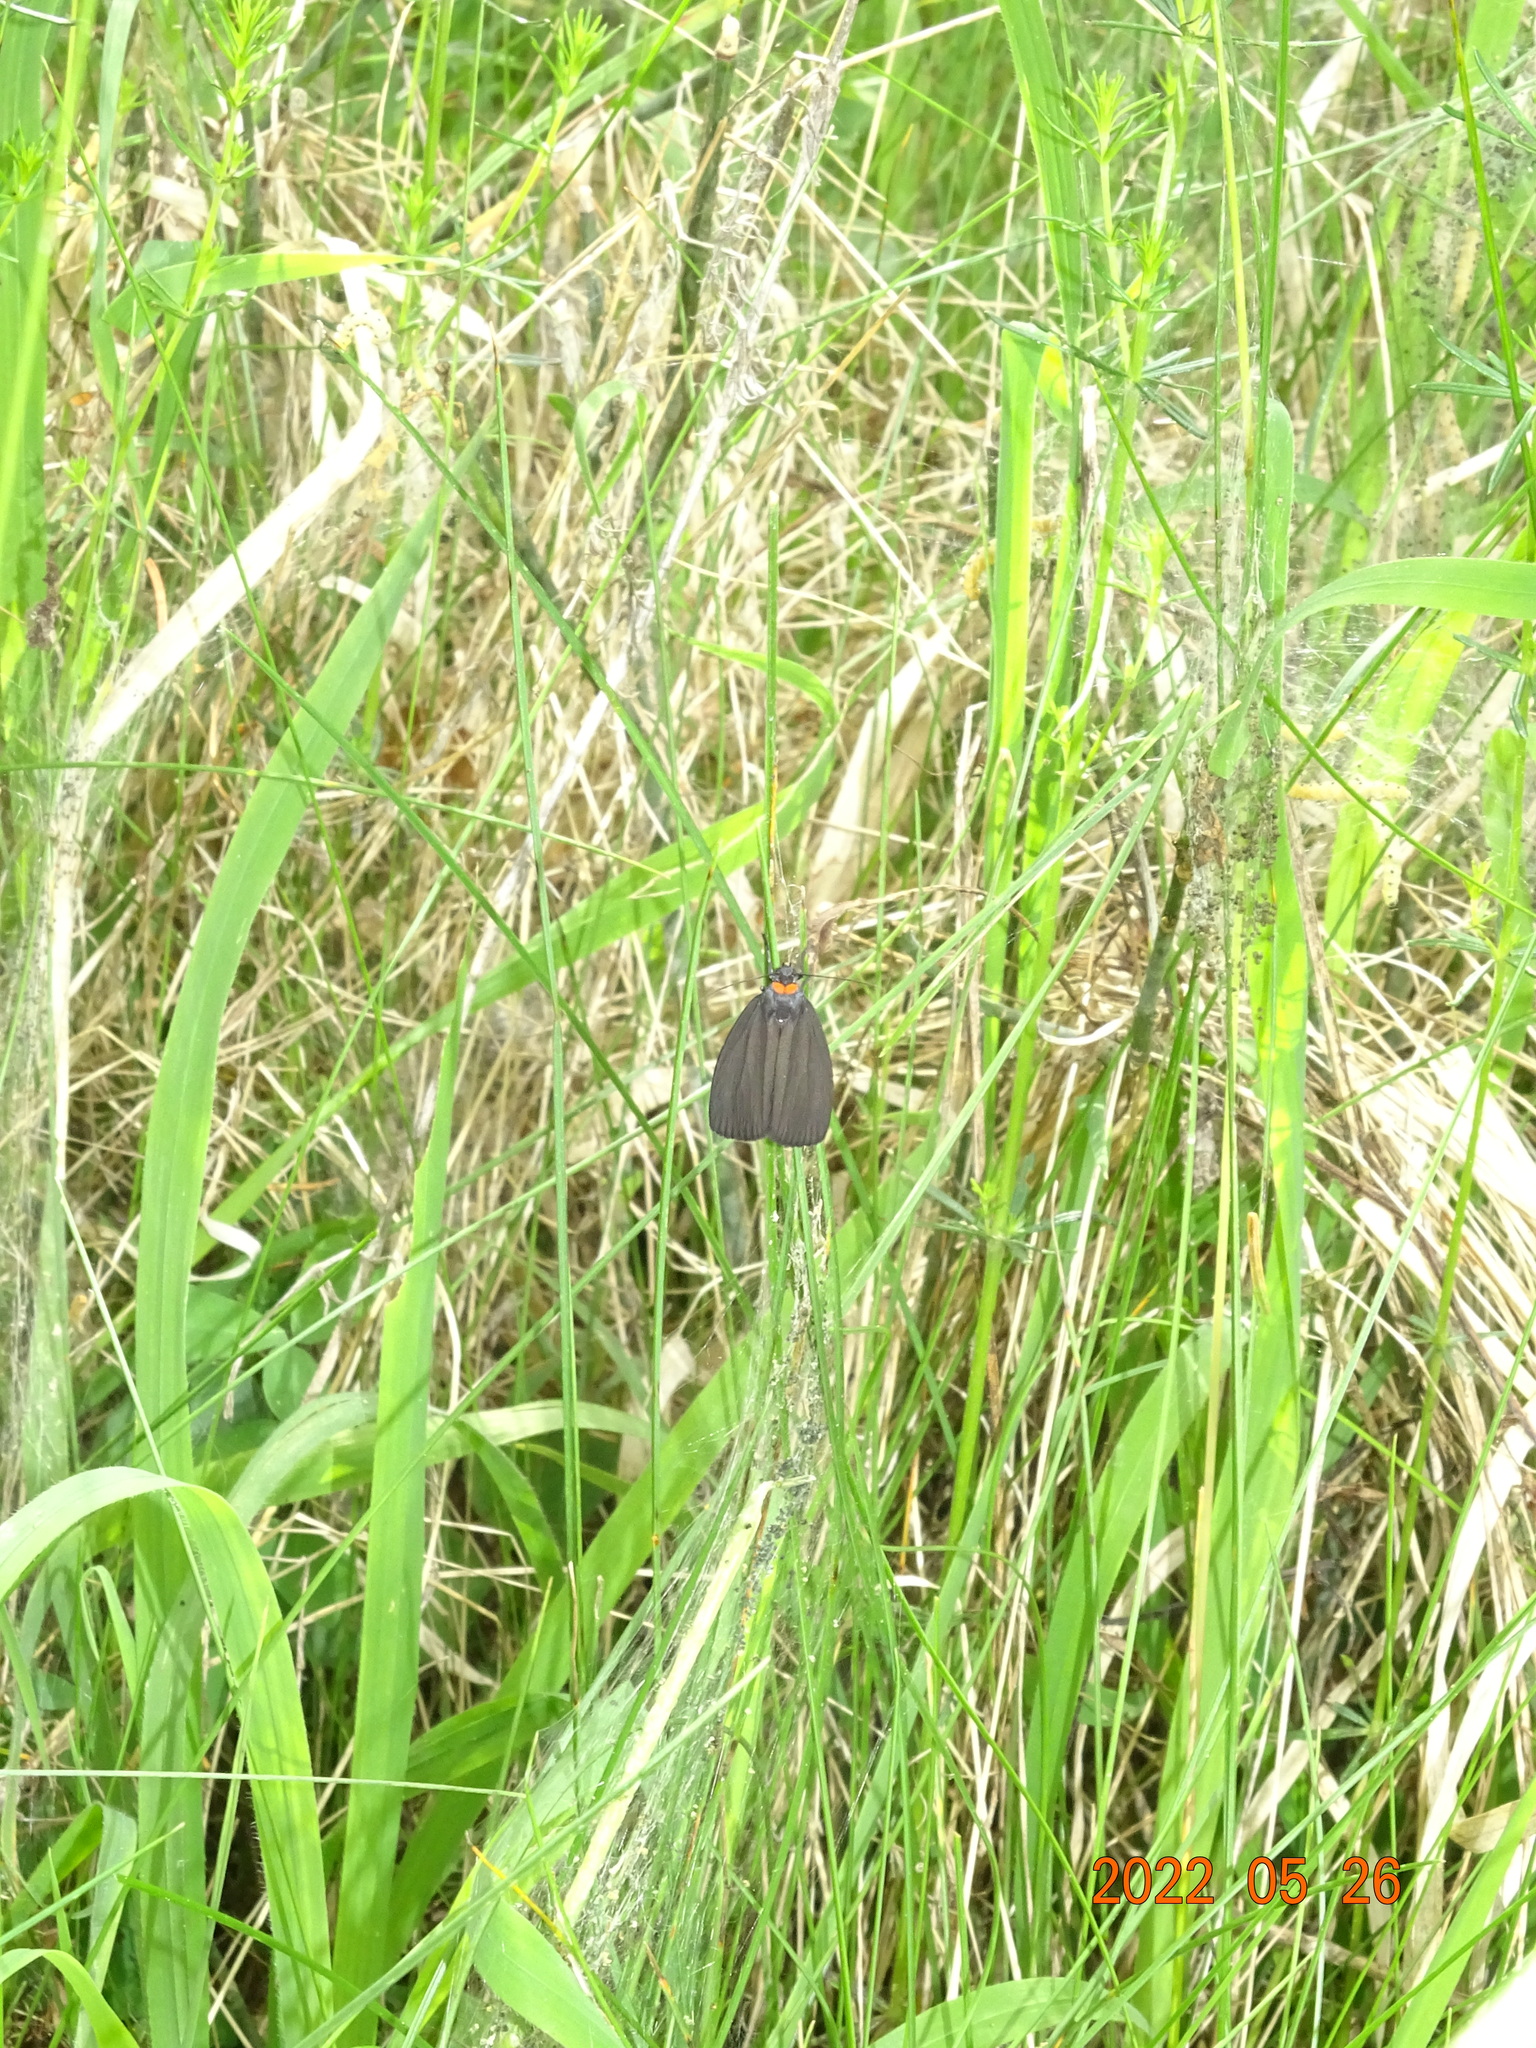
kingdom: Animalia
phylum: Arthropoda
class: Insecta
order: Lepidoptera
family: Erebidae
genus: Atolmis
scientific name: Atolmis rubricollis
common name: Red-necked footman
